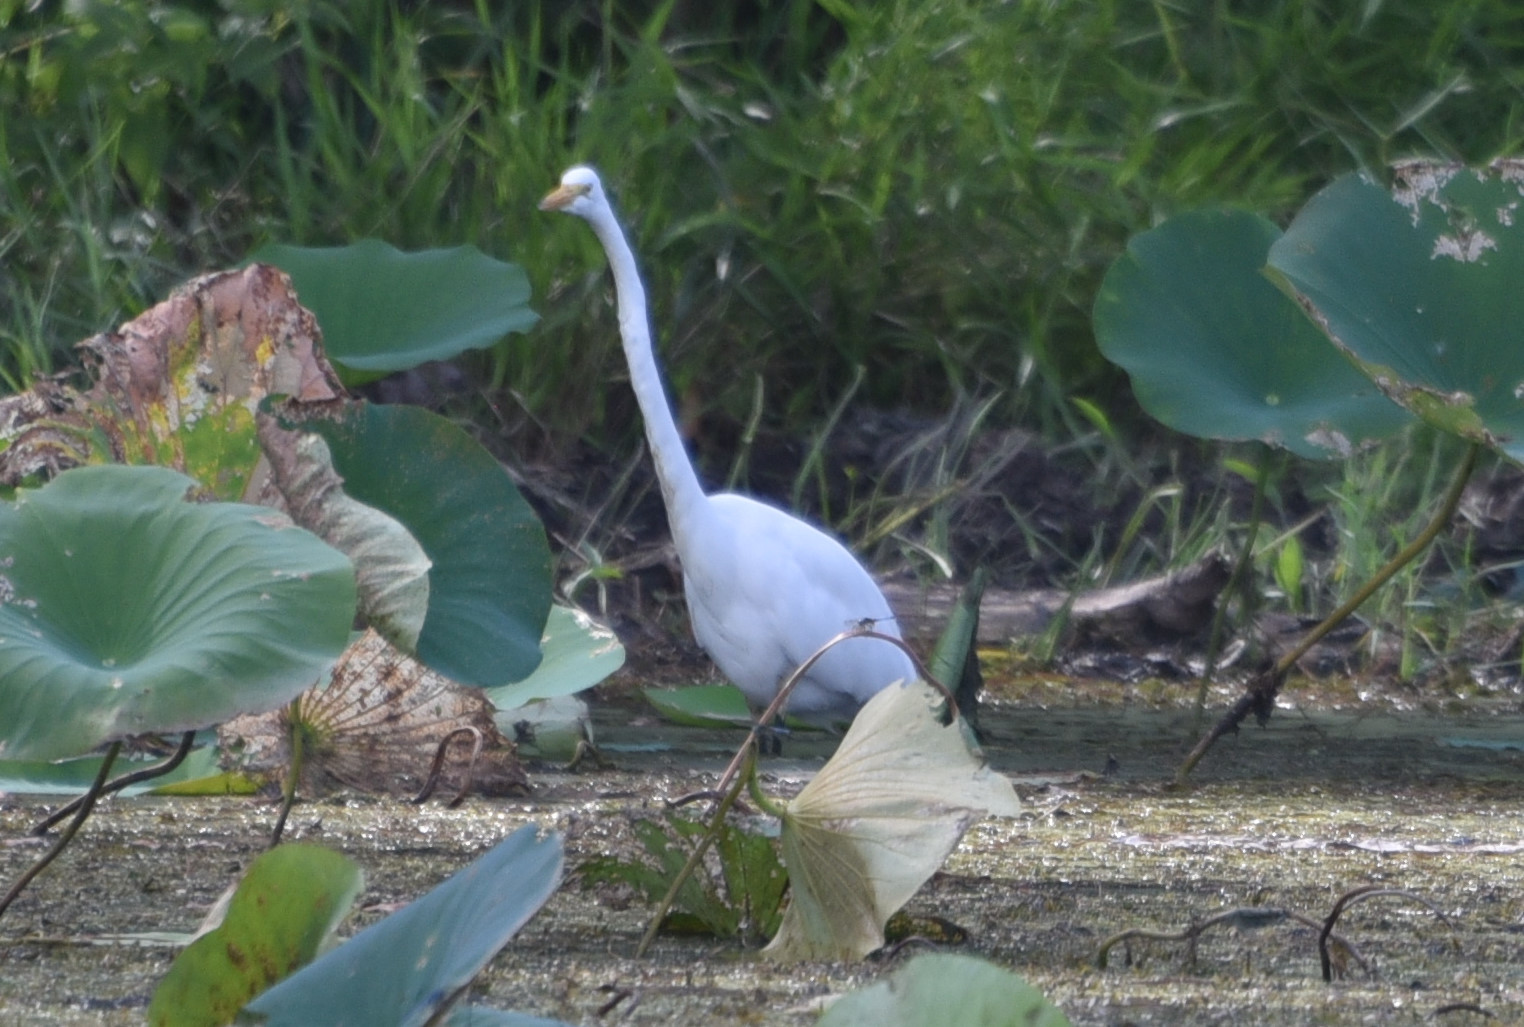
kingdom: Animalia
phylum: Chordata
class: Aves
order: Pelecaniformes
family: Ardeidae
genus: Ardea
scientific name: Ardea alba
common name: Great egret
